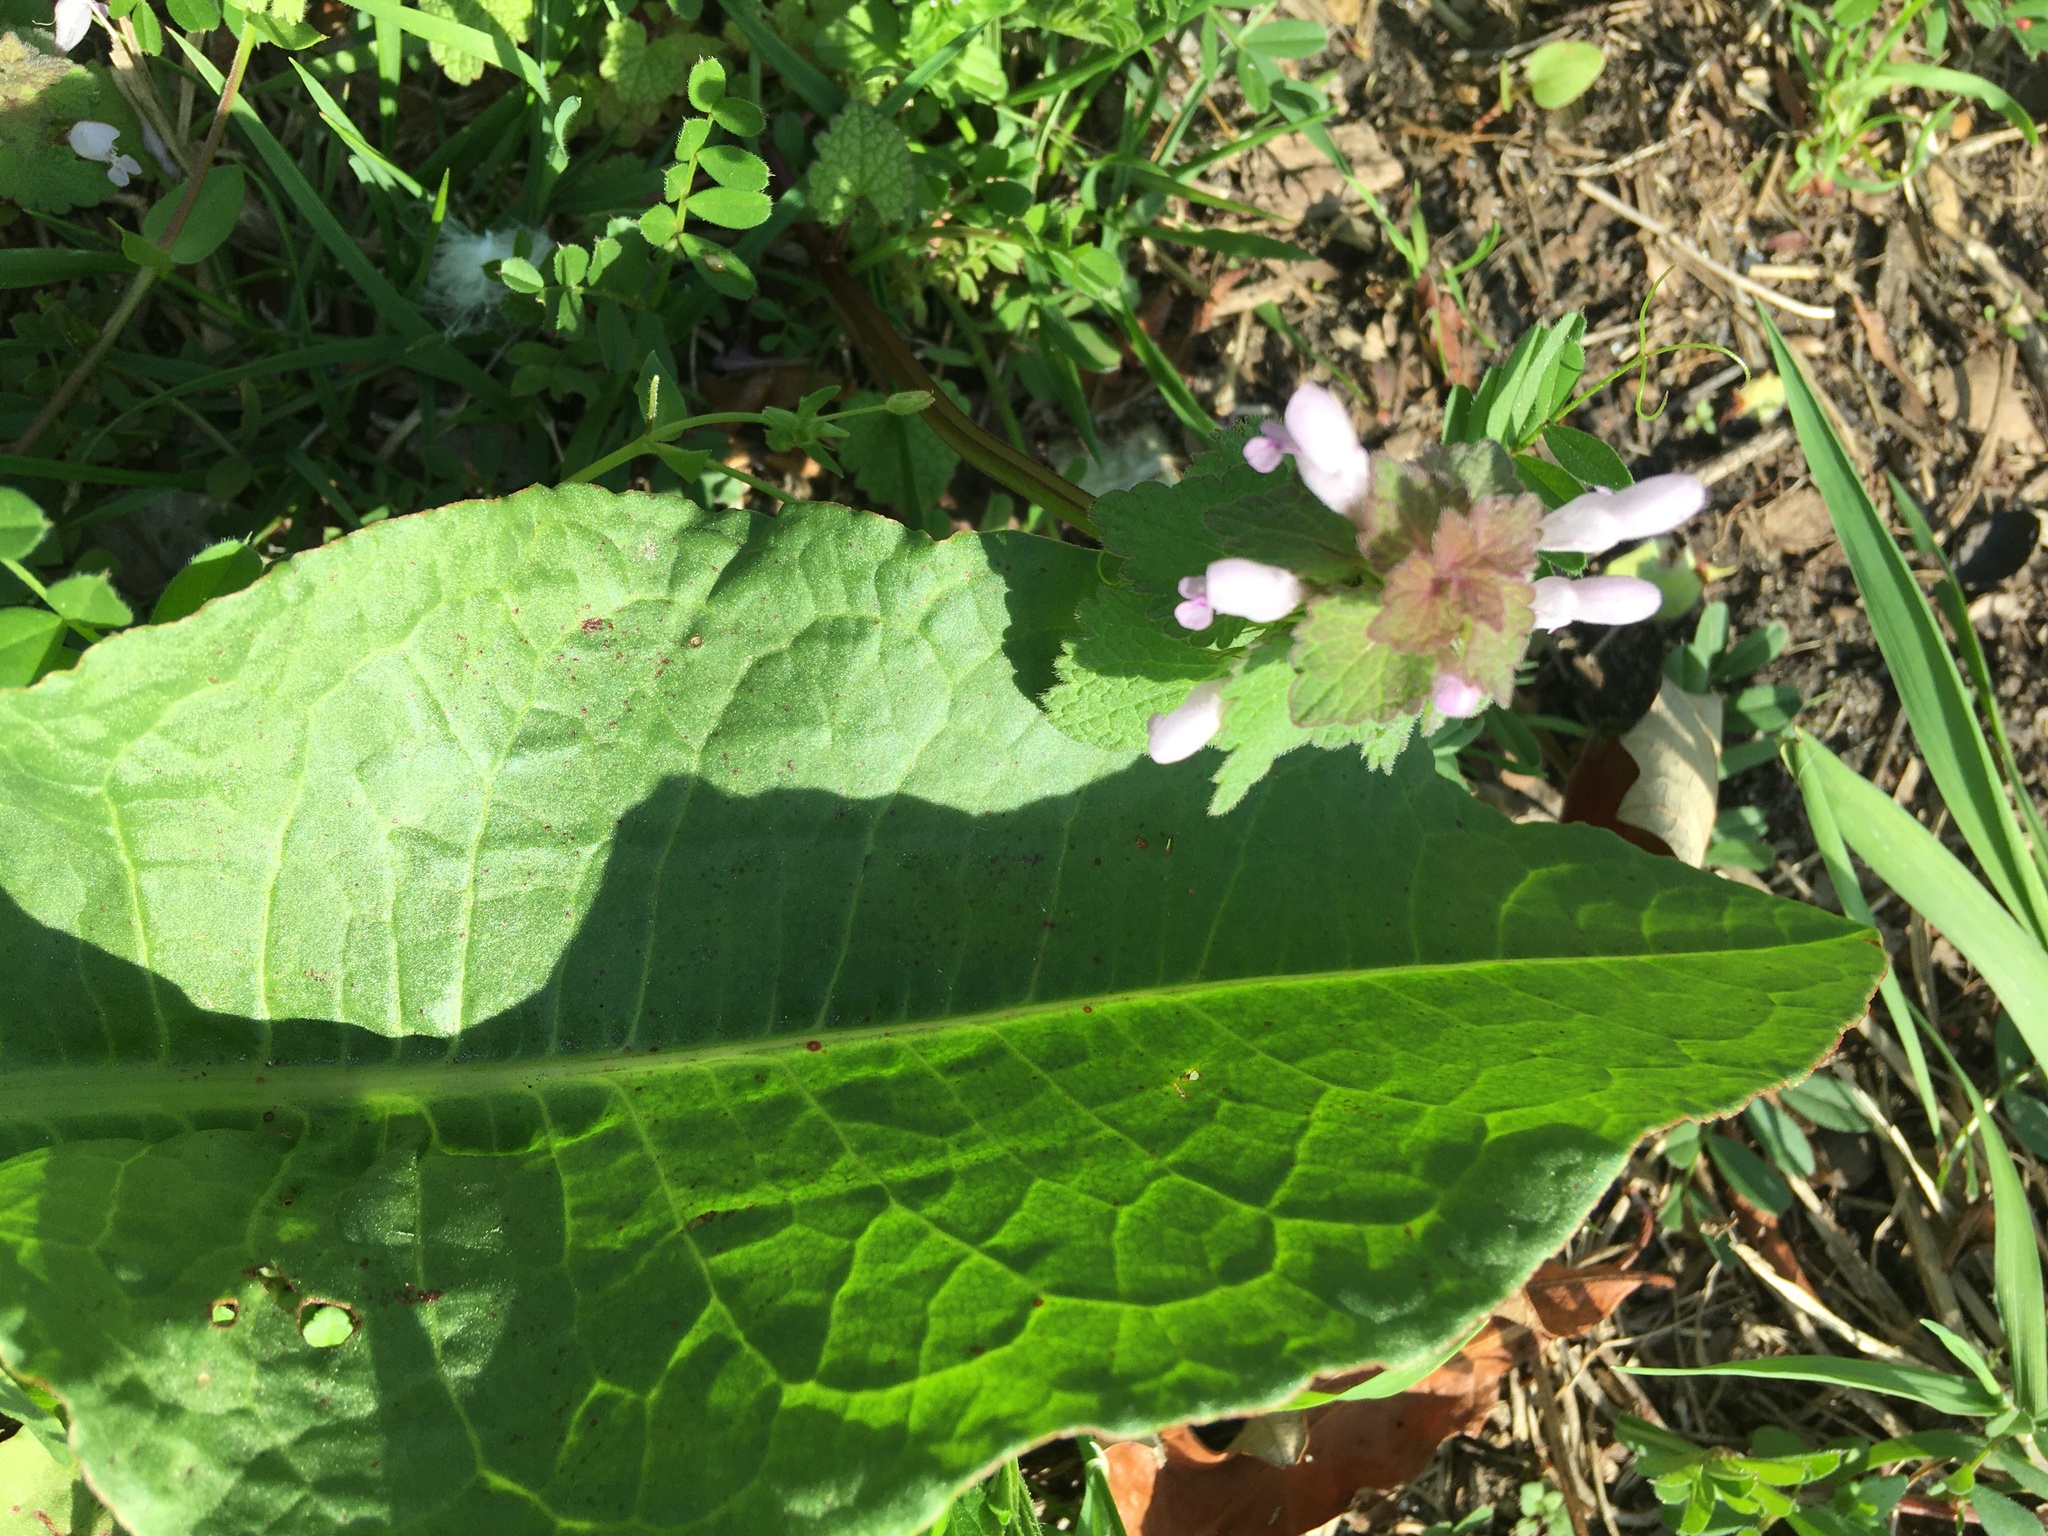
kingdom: Plantae
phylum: Tracheophyta
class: Magnoliopsida
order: Lamiales
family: Lamiaceae
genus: Lamium
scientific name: Lamium purpureum
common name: Red dead-nettle
